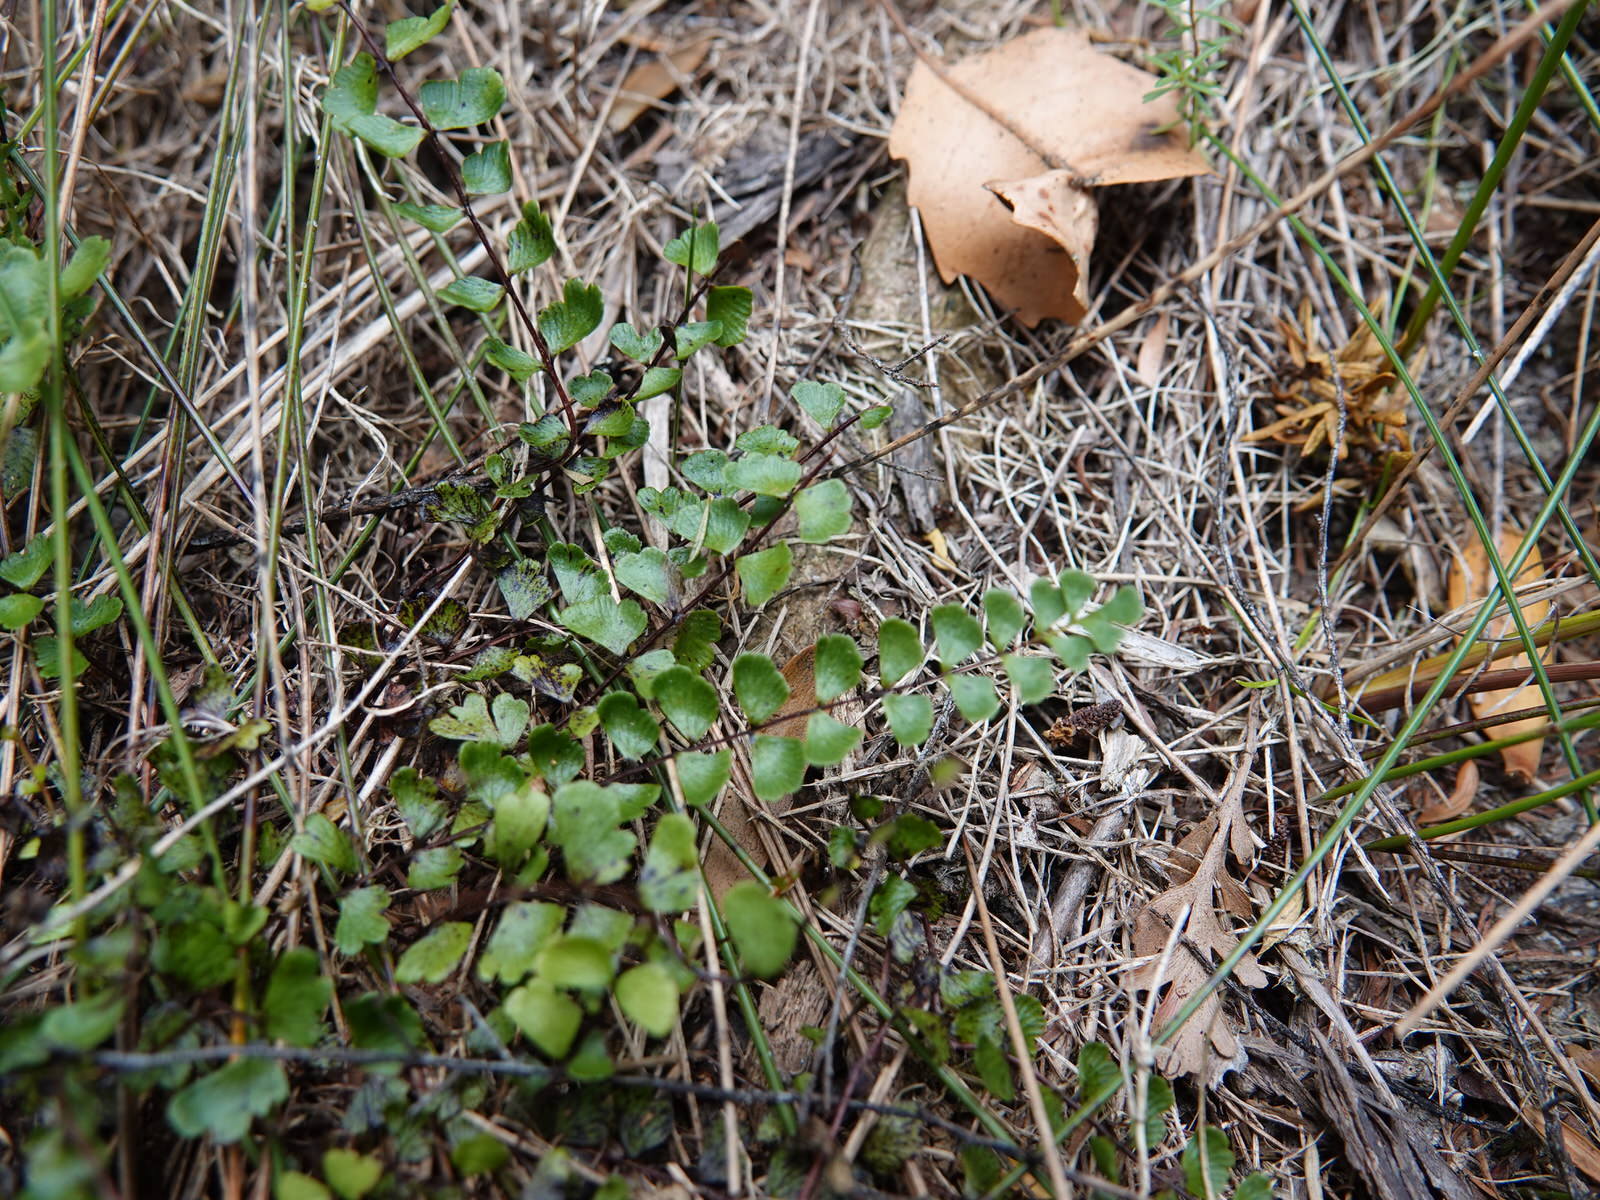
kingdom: Plantae
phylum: Tracheophyta
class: Polypodiopsida
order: Polypodiales
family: Lindsaeaceae
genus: Lindsaea
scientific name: Lindsaea linearis
